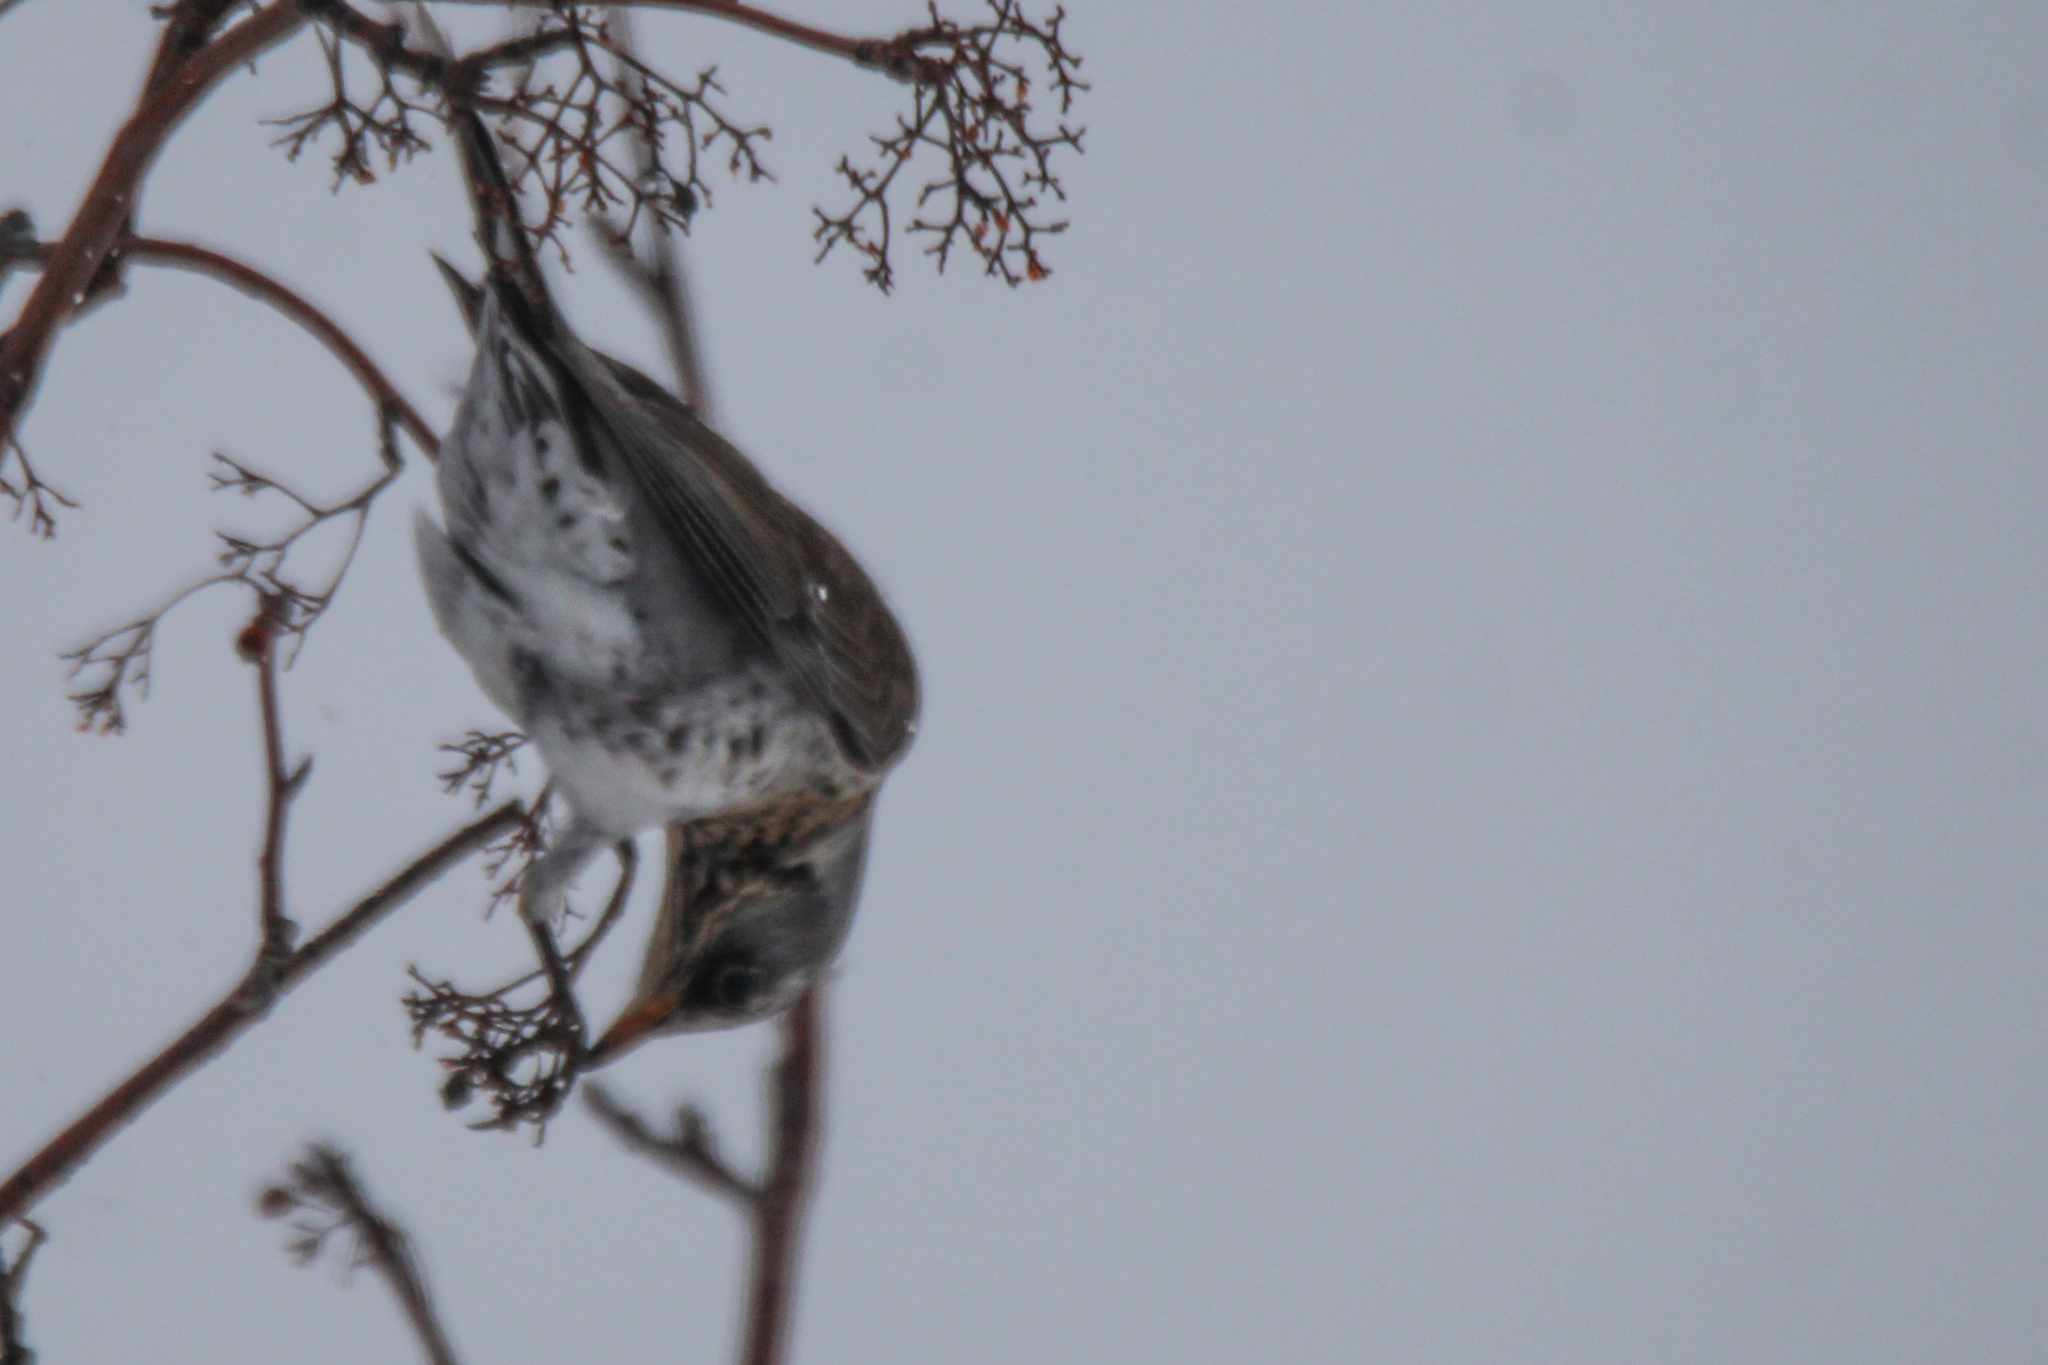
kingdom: Animalia
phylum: Chordata
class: Aves
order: Passeriformes
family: Turdidae
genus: Turdus
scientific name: Turdus pilaris
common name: Fieldfare
